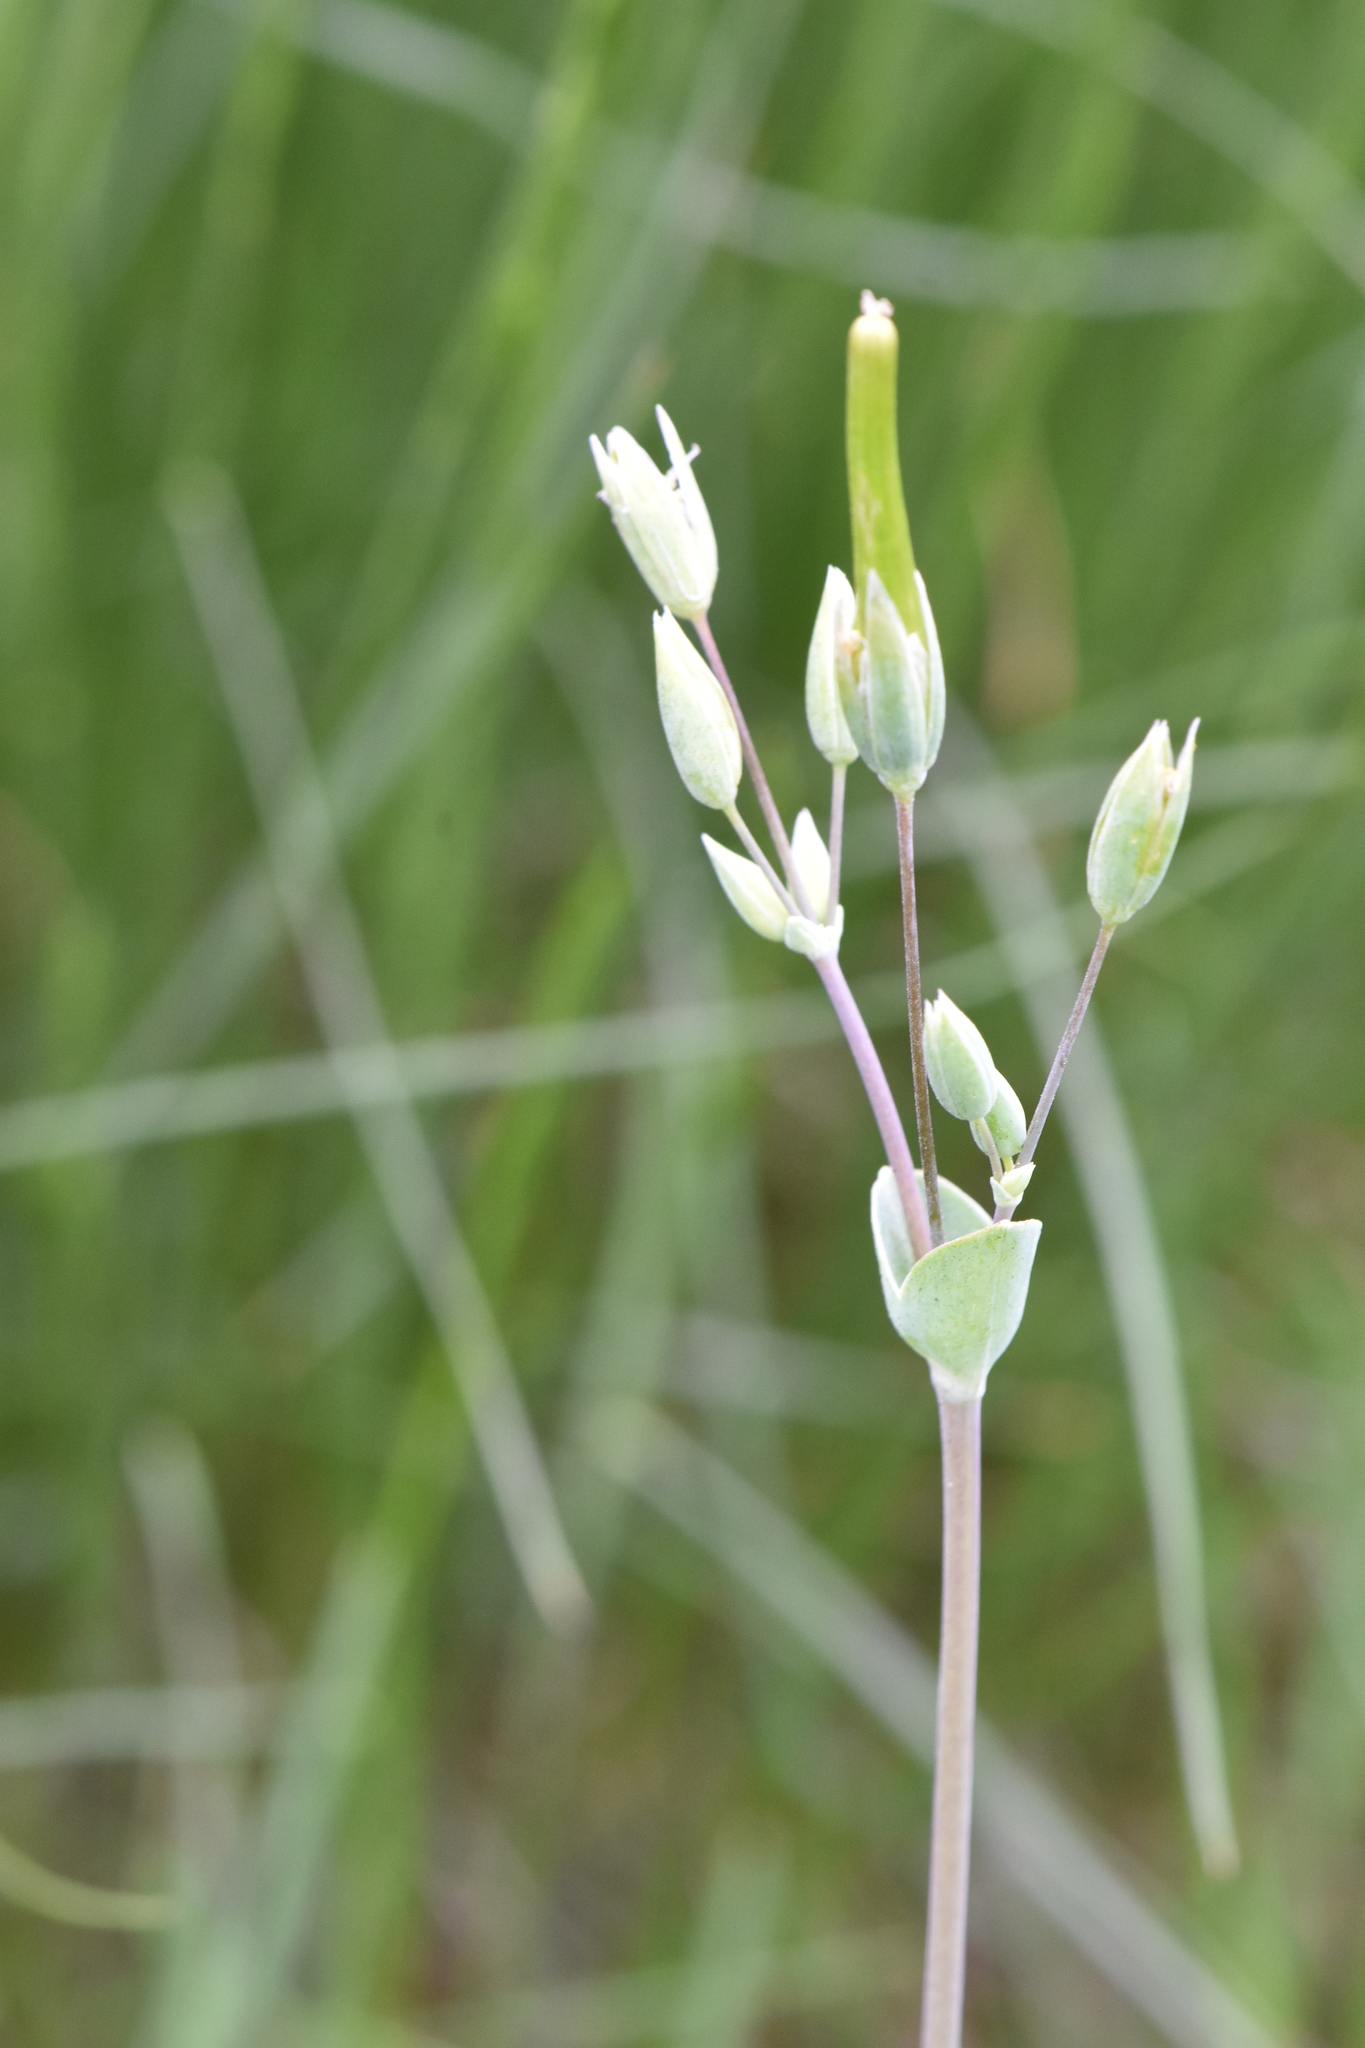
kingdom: Plantae
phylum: Tracheophyta
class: Magnoliopsida
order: Caryophyllales
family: Caryophyllaceae
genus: Holosteum
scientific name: Holosteum umbellatum
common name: Jagged chickweed
